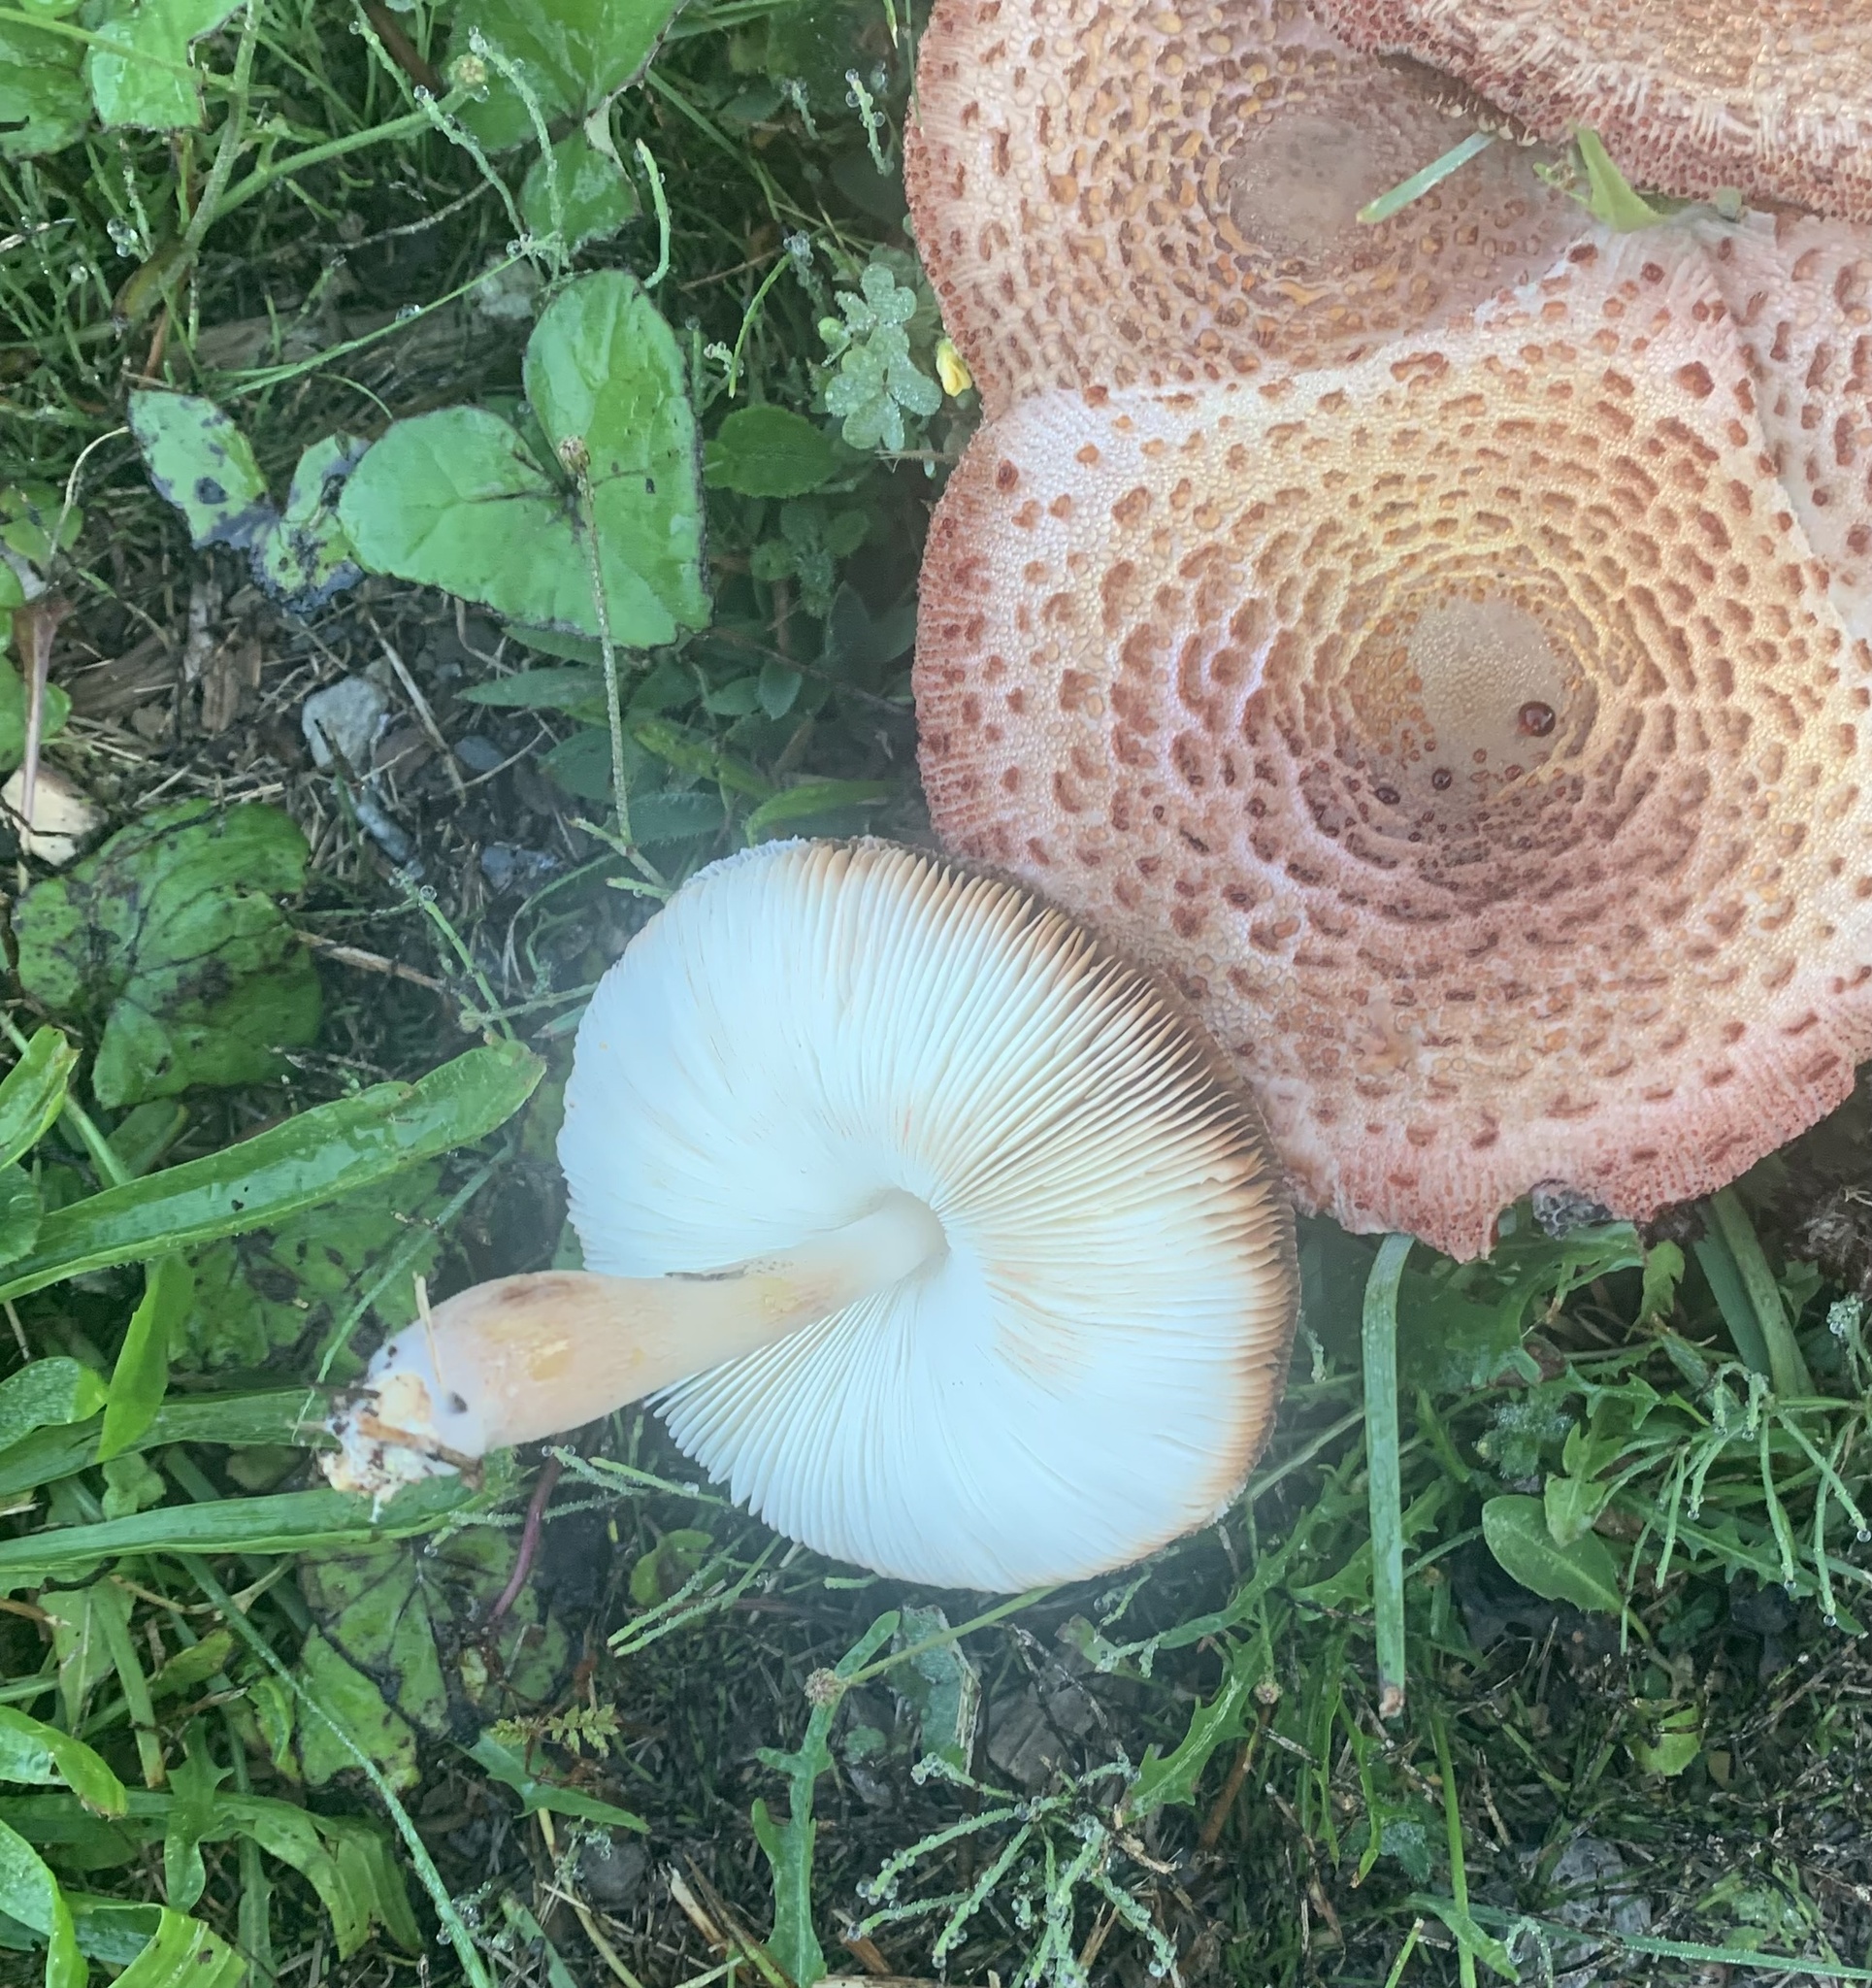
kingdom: Fungi
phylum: Basidiomycota
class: Agaricomycetes
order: Agaricales
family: Agaricaceae
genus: Leucoagaricus
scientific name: Leucoagaricus americanus
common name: Reddening lepiota
